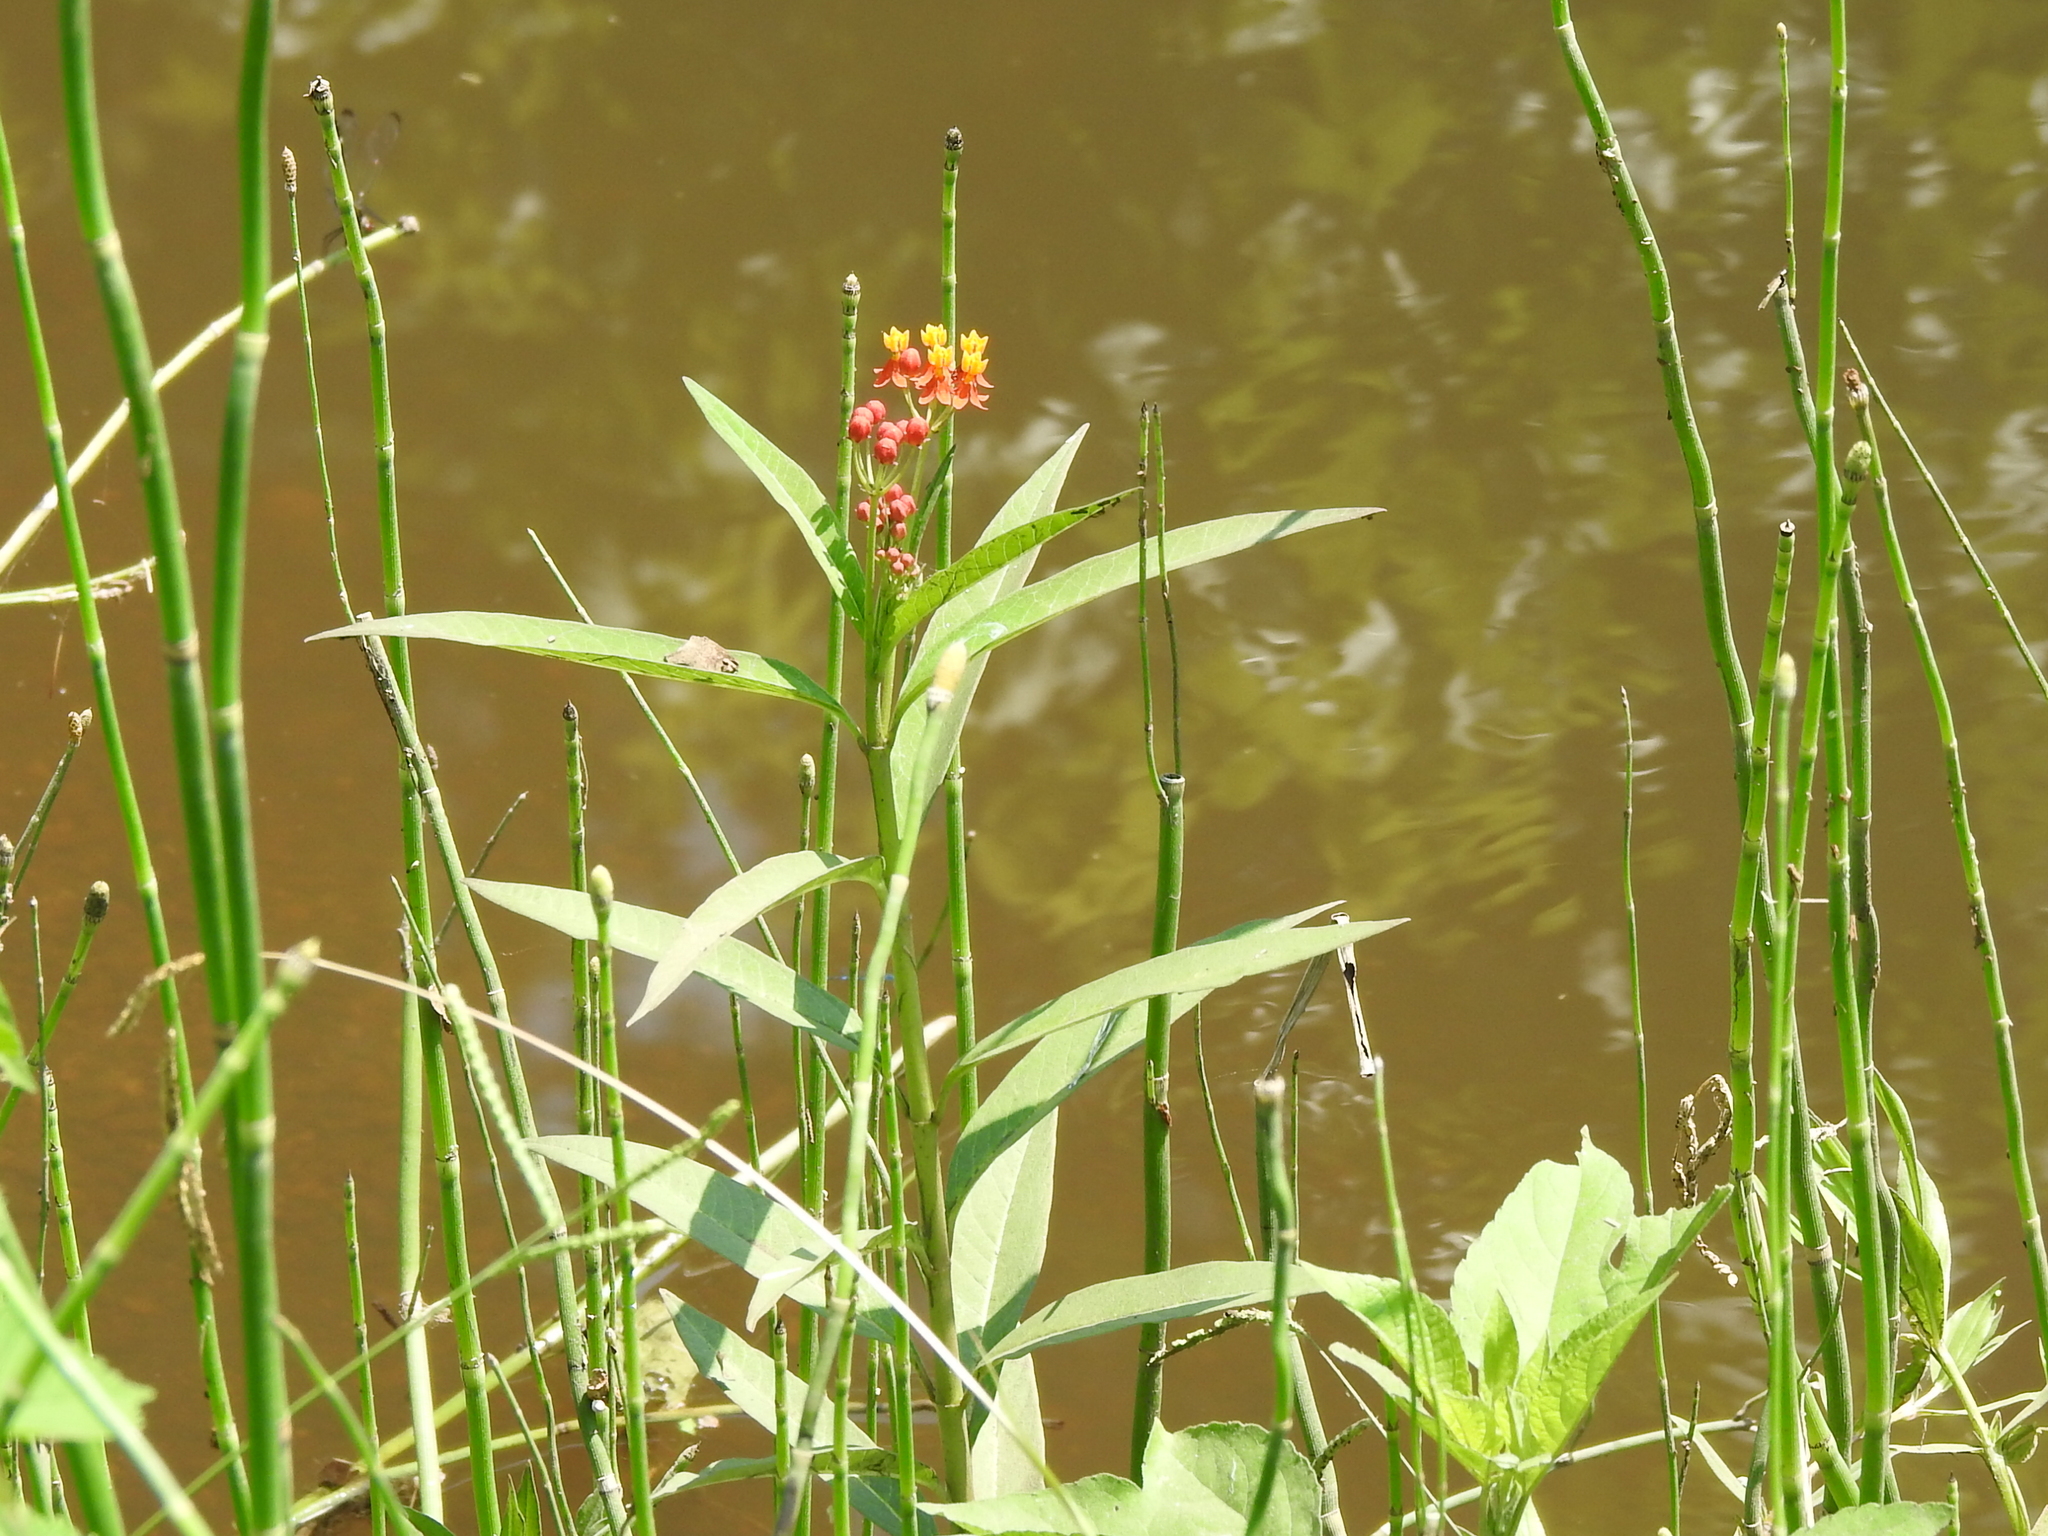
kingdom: Plantae
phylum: Tracheophyta
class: Magnoliopsida
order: Gentianales
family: Apocynaceae
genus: Asclepias
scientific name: Asclepias curassavica
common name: Bloodflower
